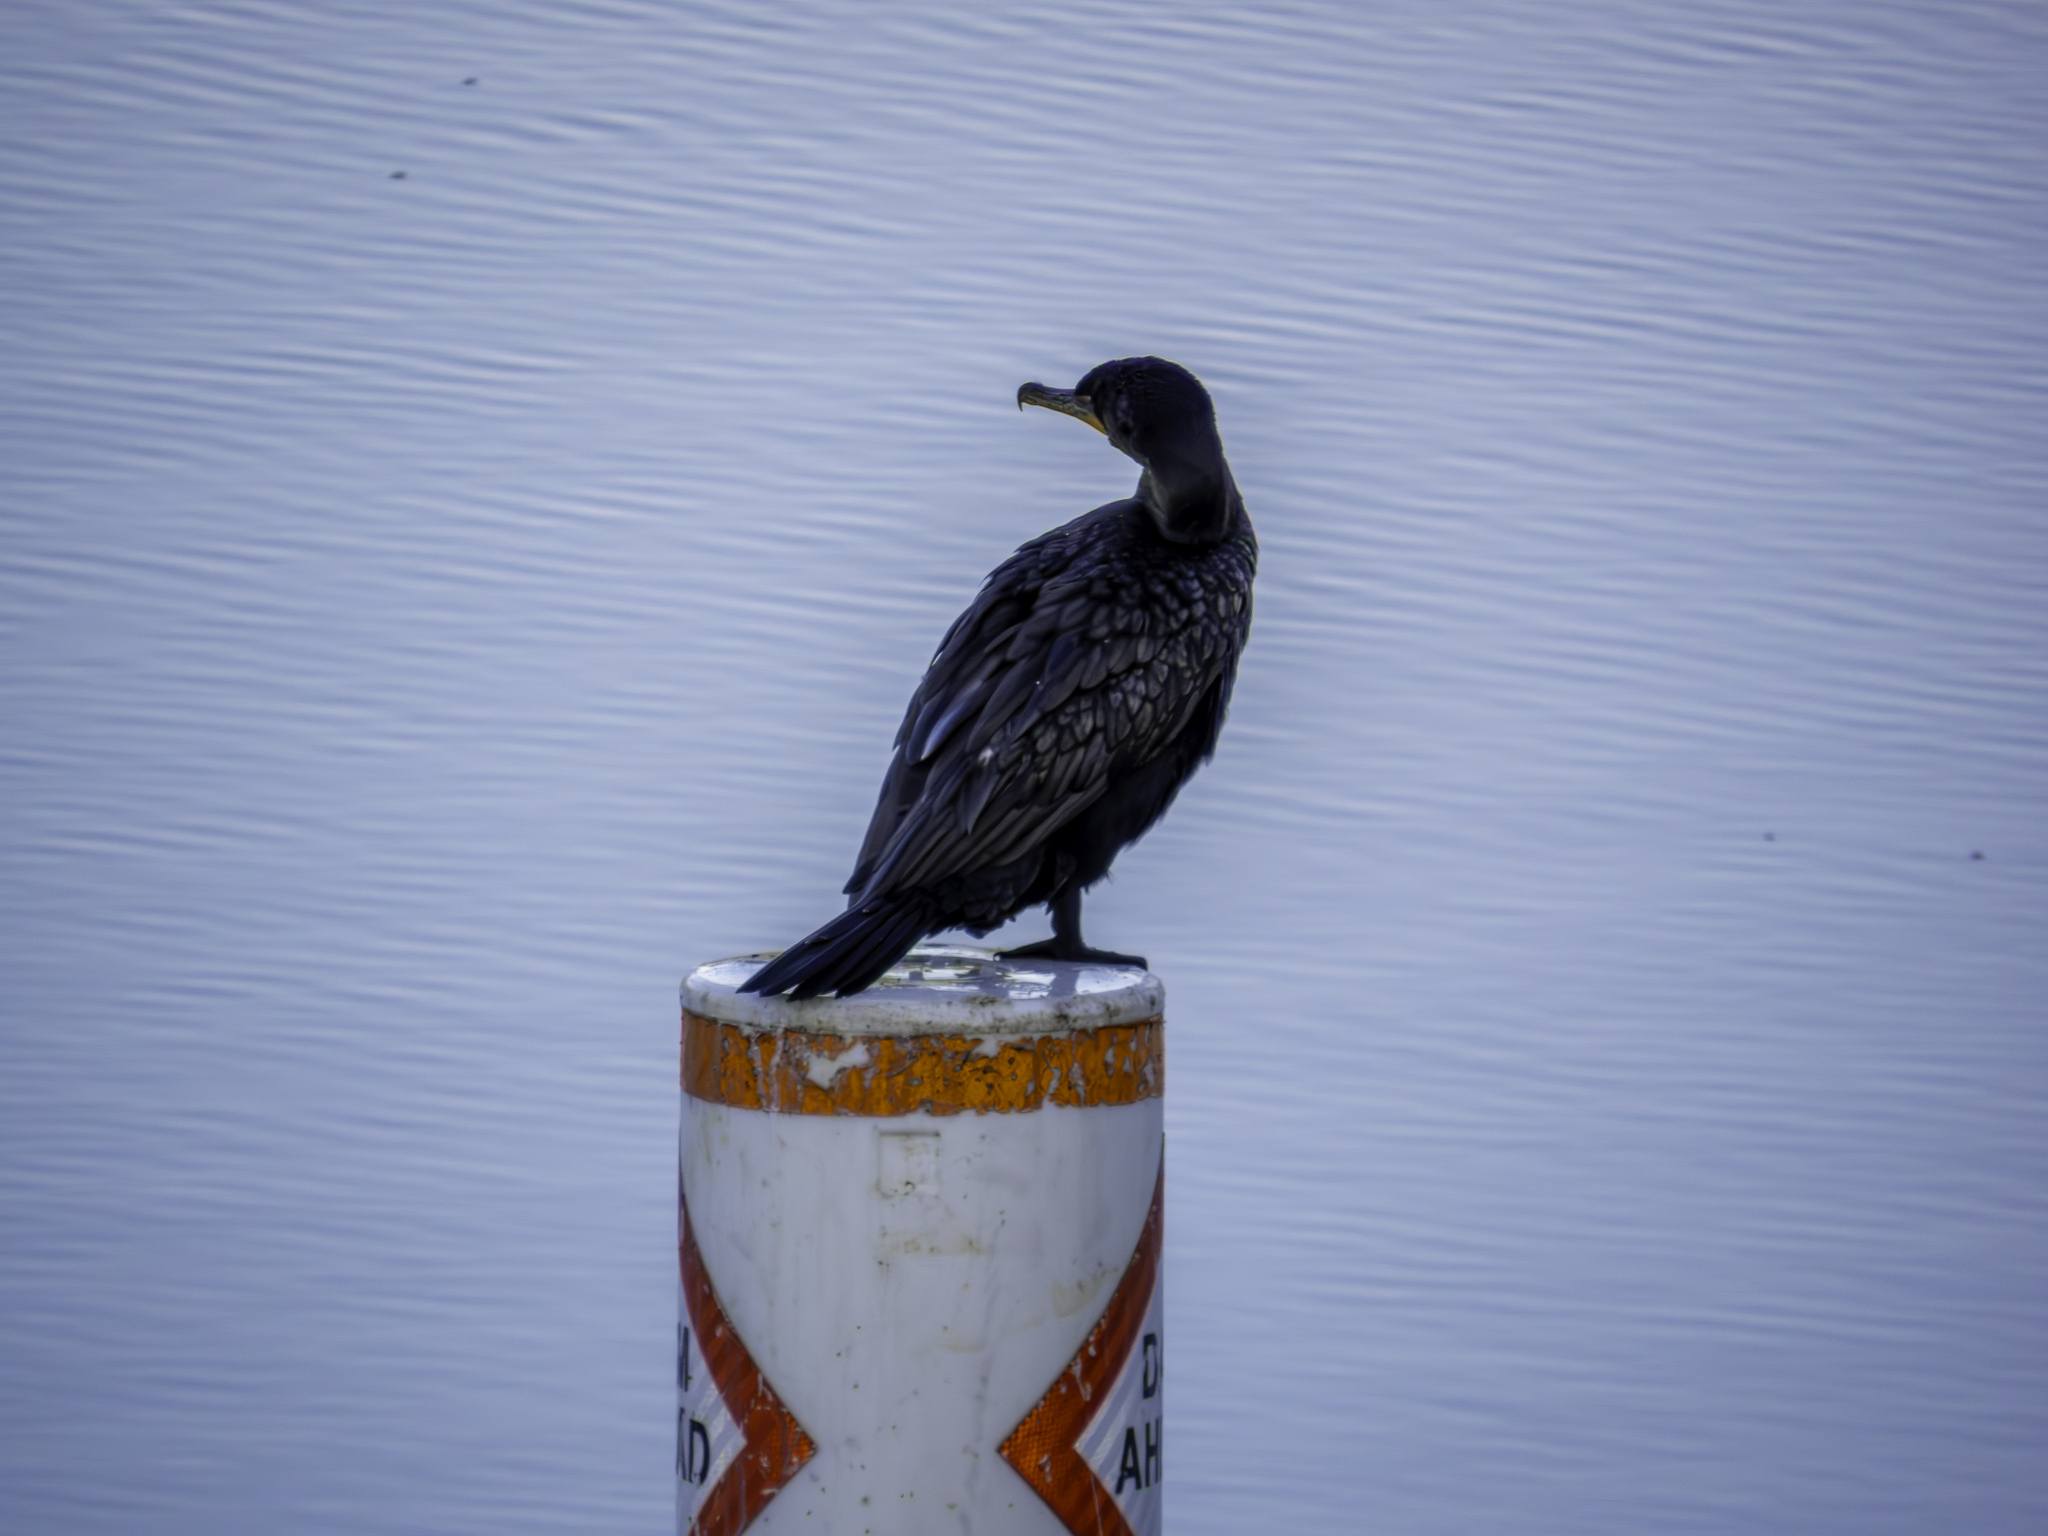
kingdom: Animalia
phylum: Chordata
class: Aves
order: Suliformes
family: Phalacrocoracidae
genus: Phalacrocorax
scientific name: Phalacrocorax auritus
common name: Double-crested cormorant
